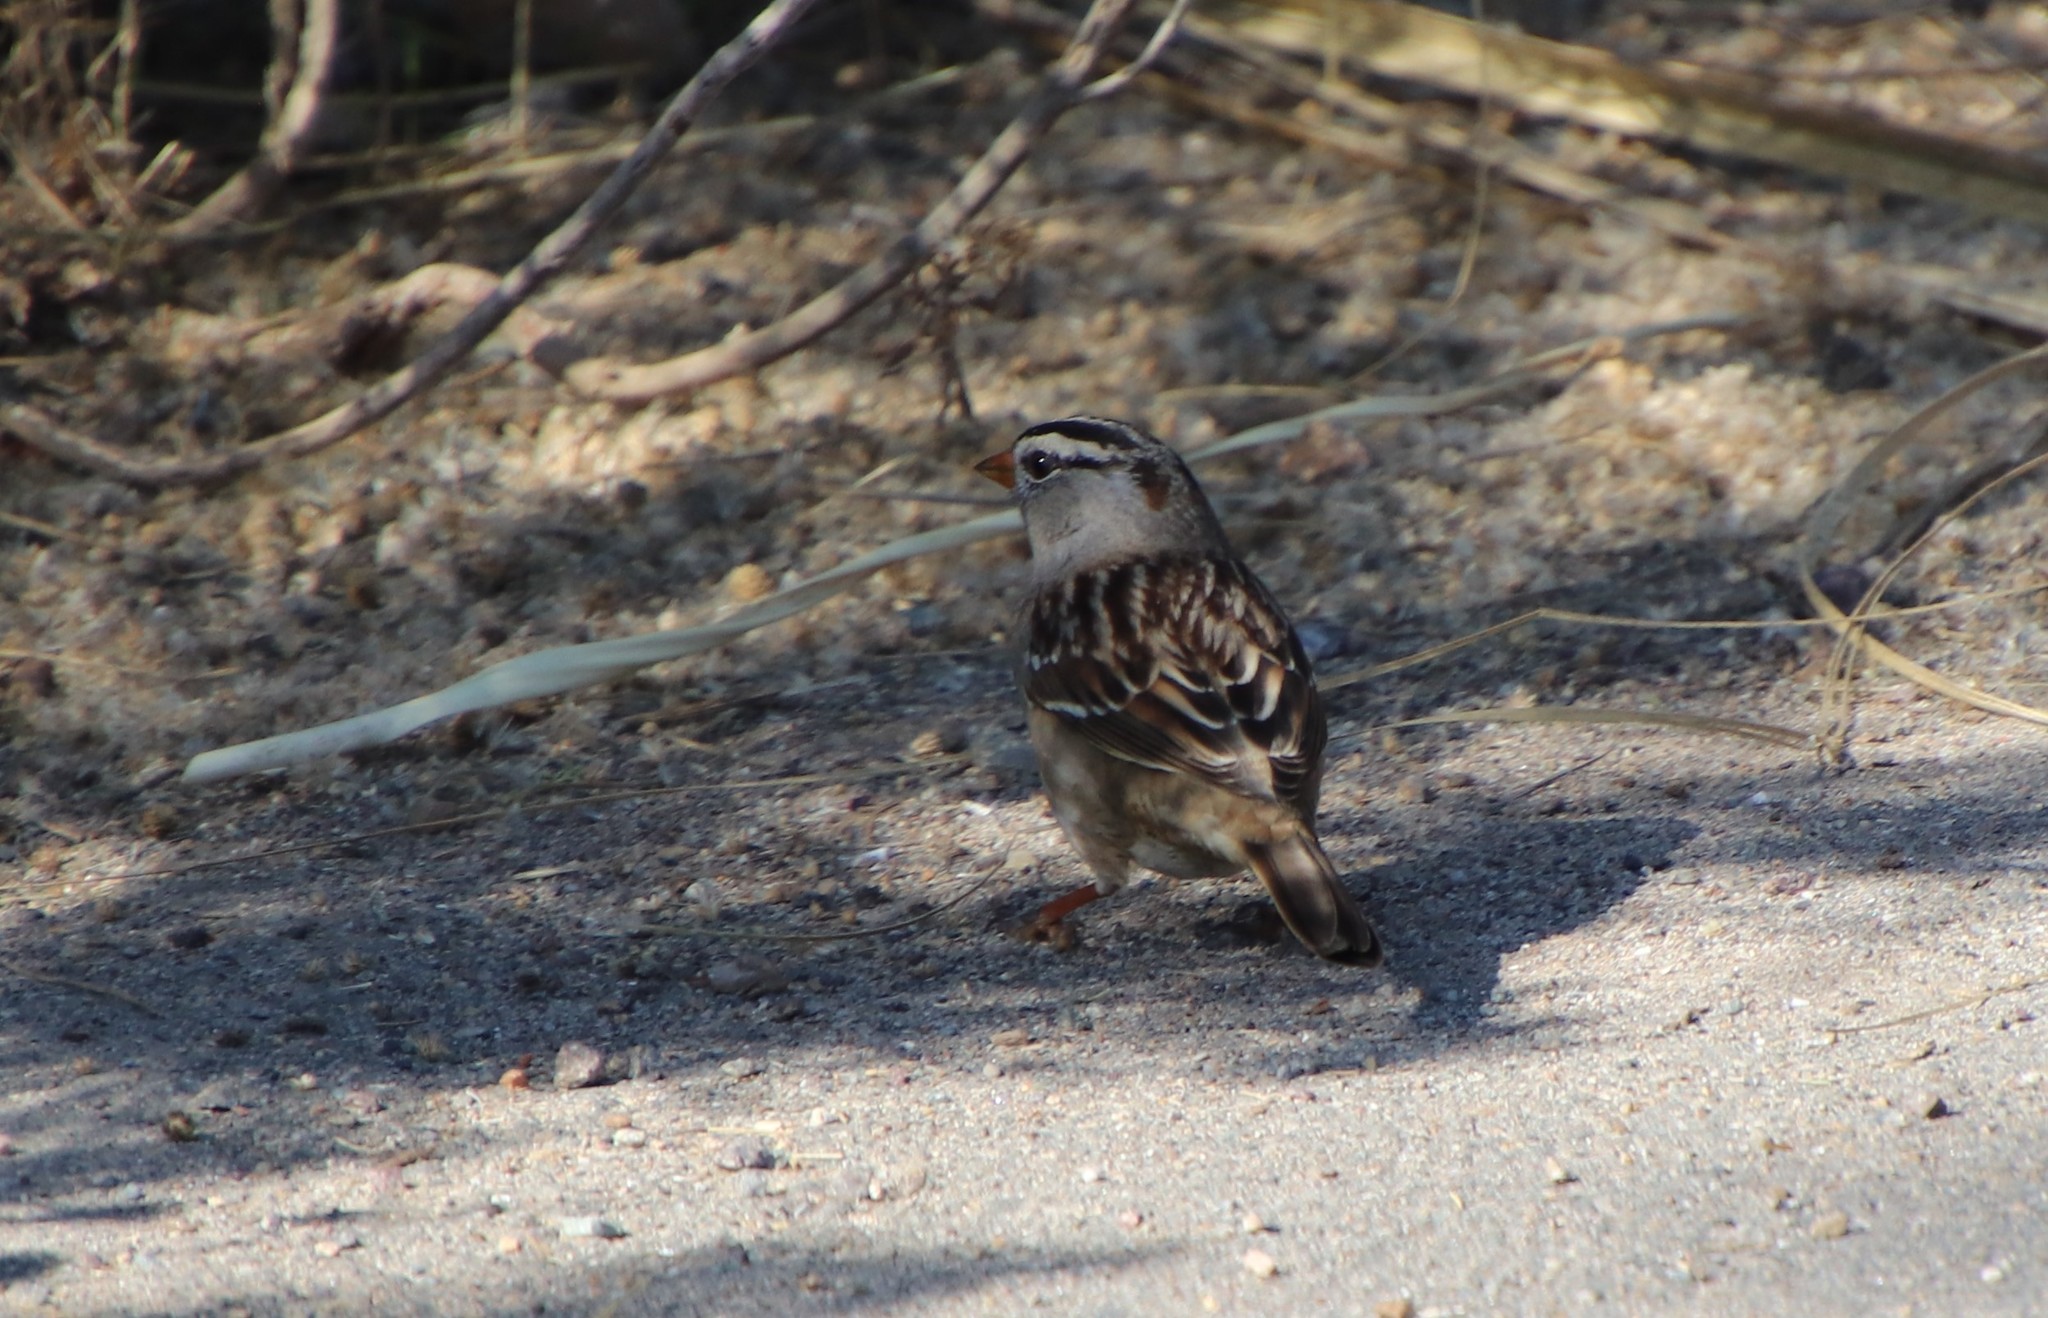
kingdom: Animalia
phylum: Chordata
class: Aves
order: Passeriformes
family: Passerellidae
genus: Zonotrichia
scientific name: Zonotrichia leucophrys
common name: White-crowned sparrow
